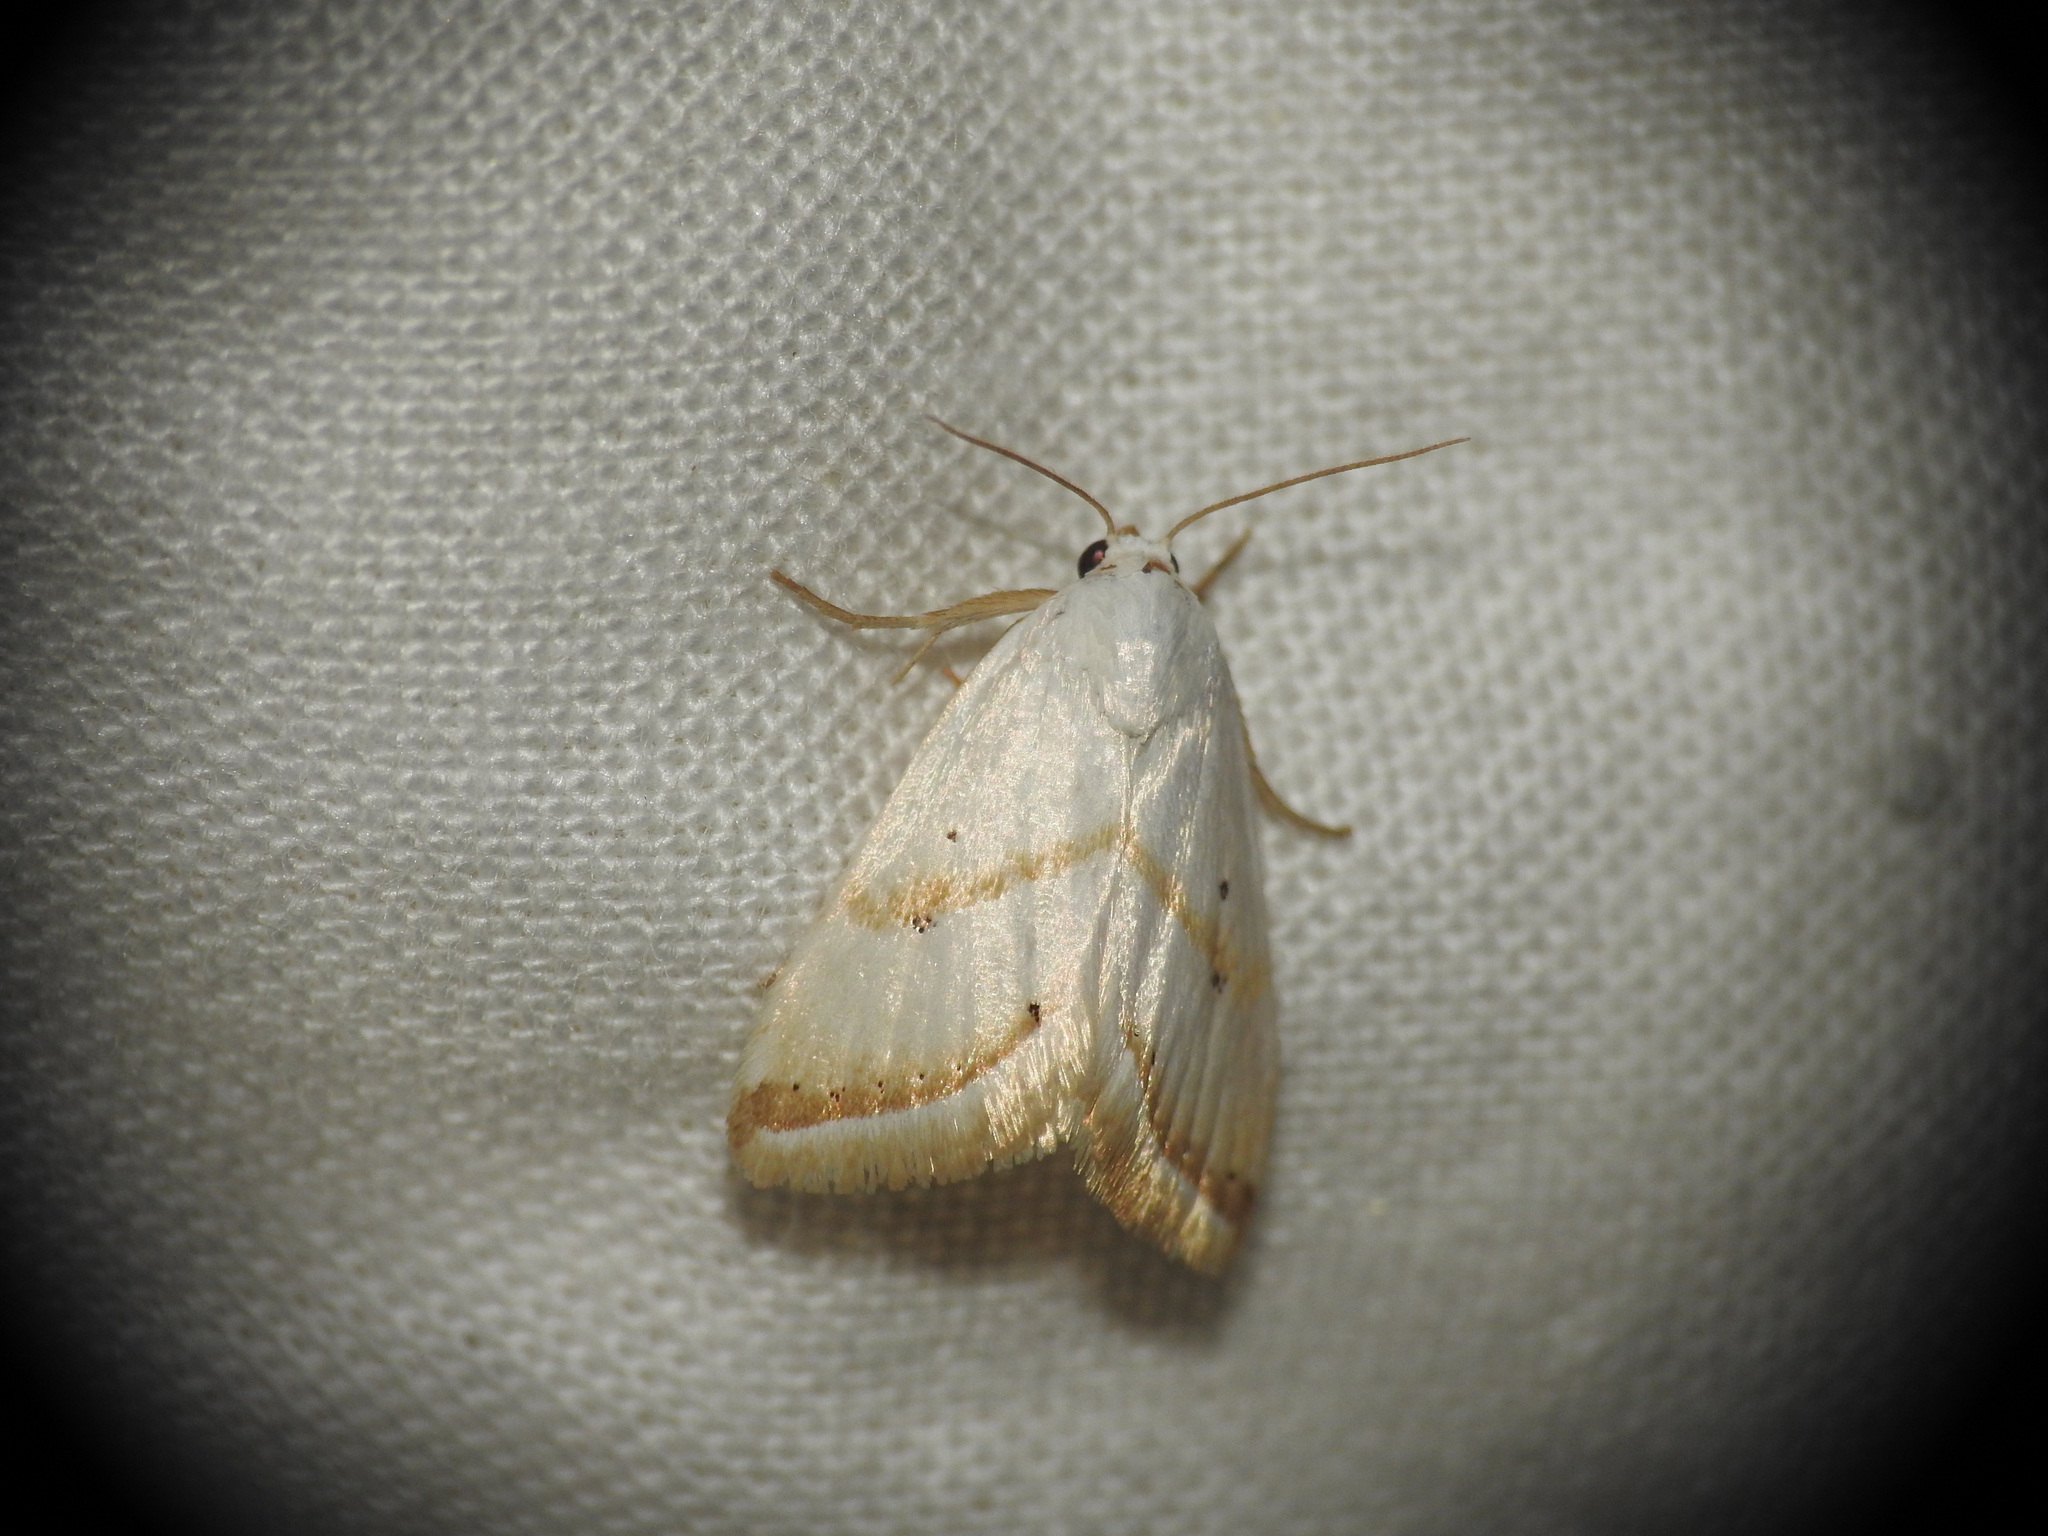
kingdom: Animalia
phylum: Arthropoda
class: Insecta
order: Lepidoptera
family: Noctuidae
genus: Eublemma
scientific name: Eublemma pura
